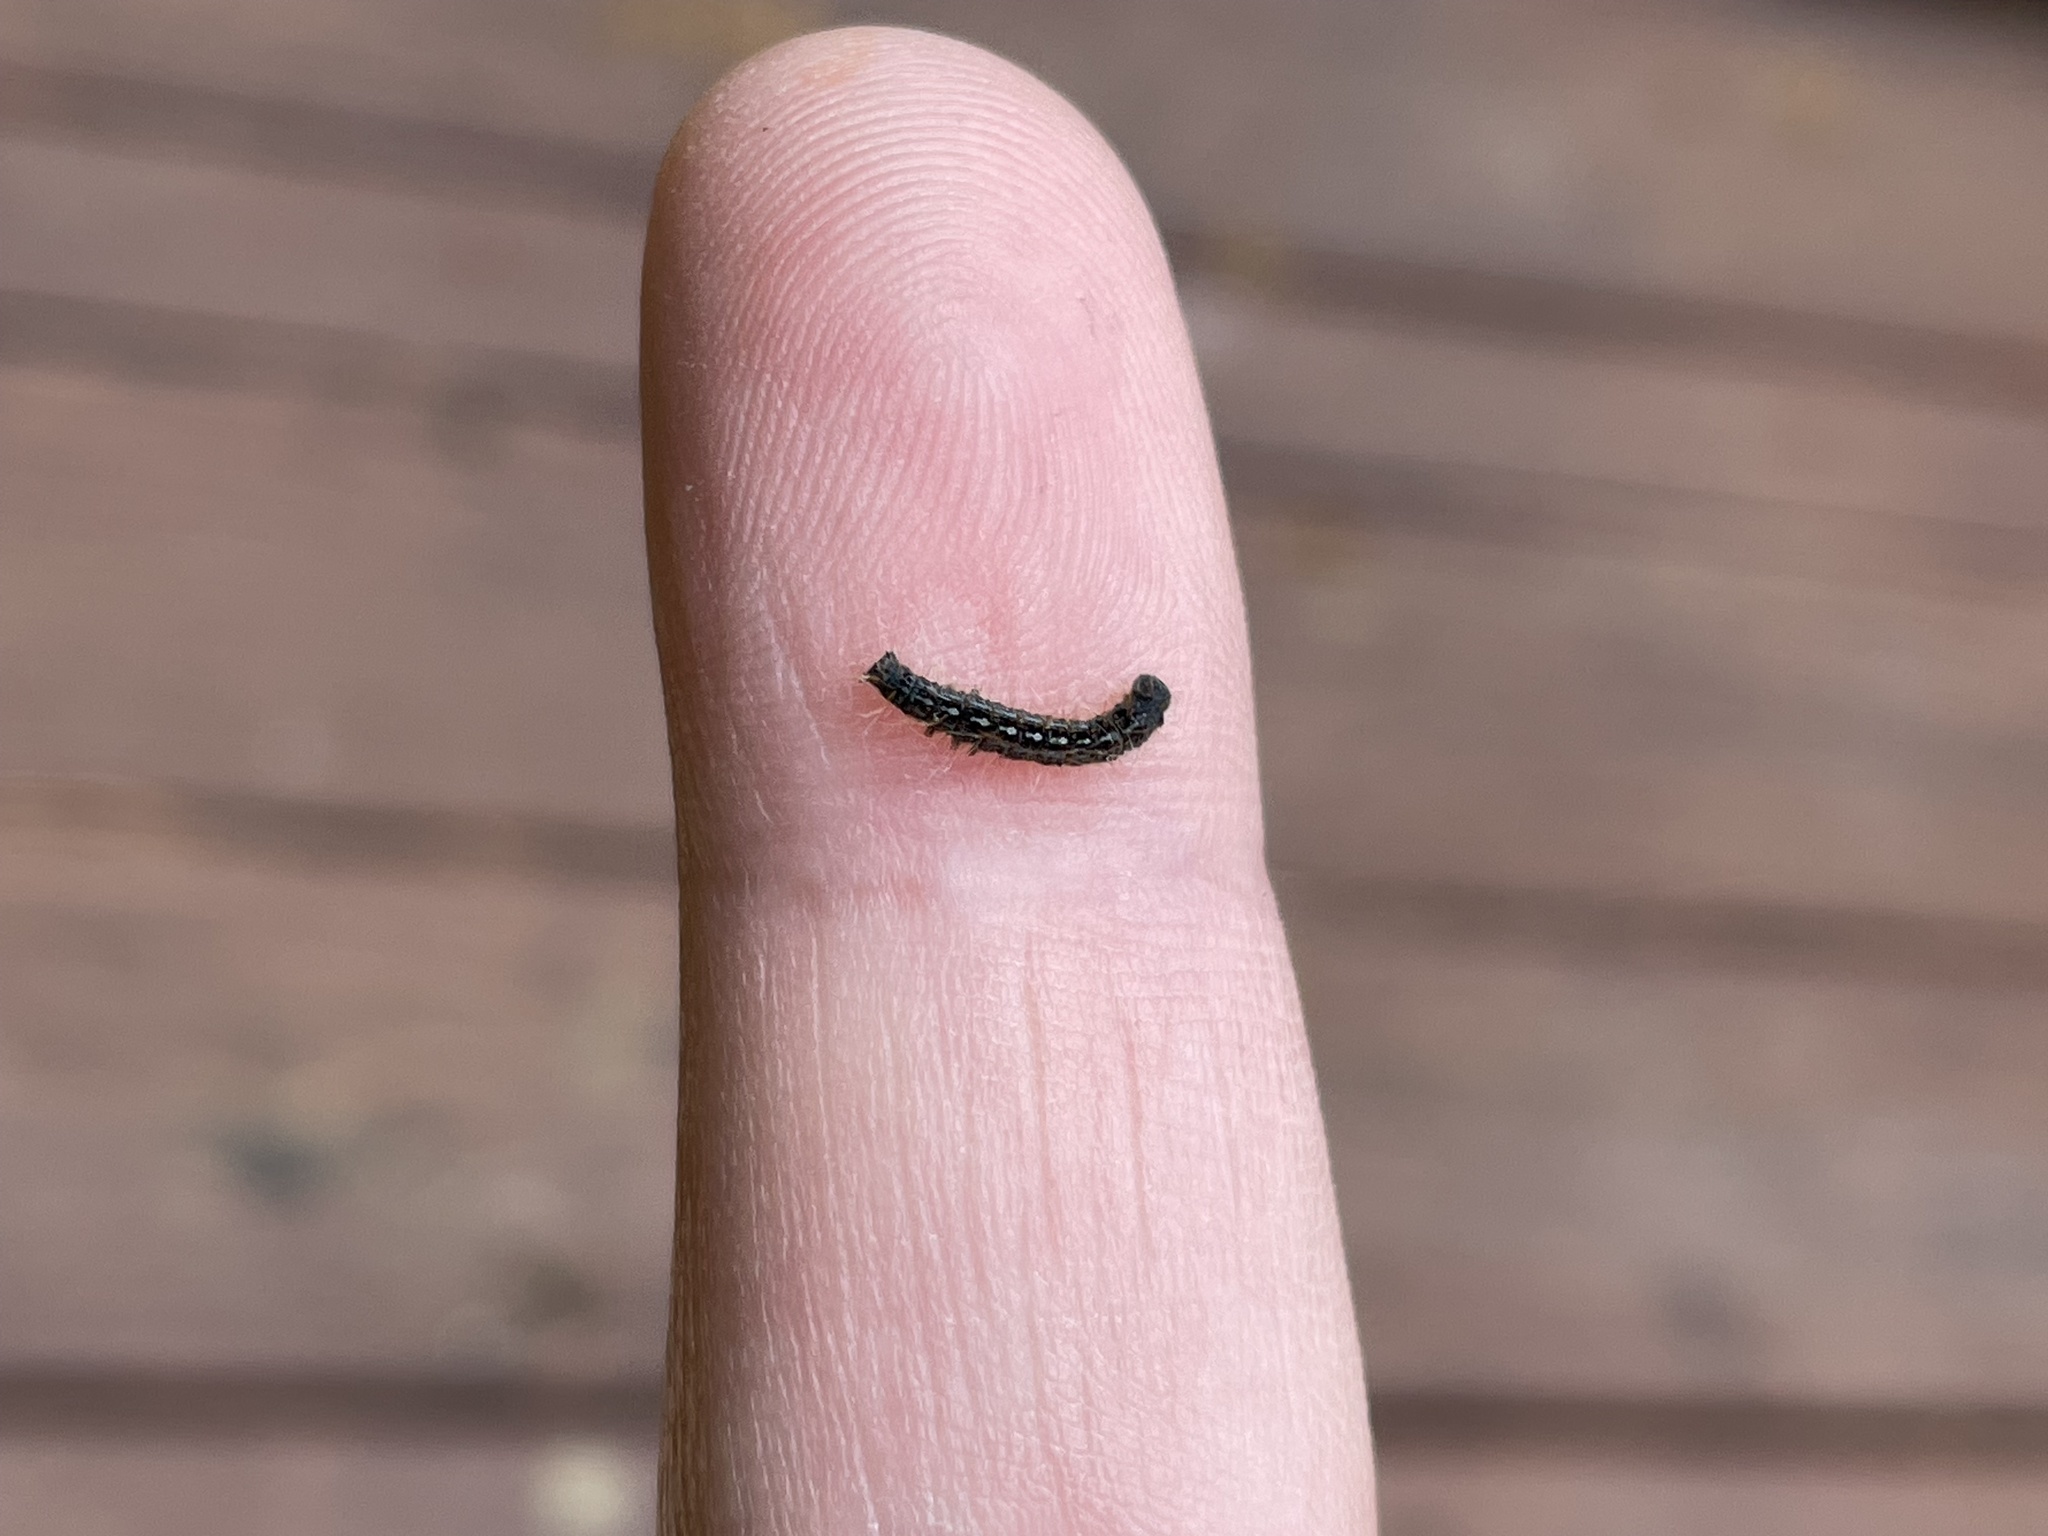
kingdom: Animalia
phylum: Arthropoda
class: Insecta
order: Lepidoptera
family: Lasiocampidae
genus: Malacosoma
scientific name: Malacosoma disstria
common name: Forest tent caterpillar
